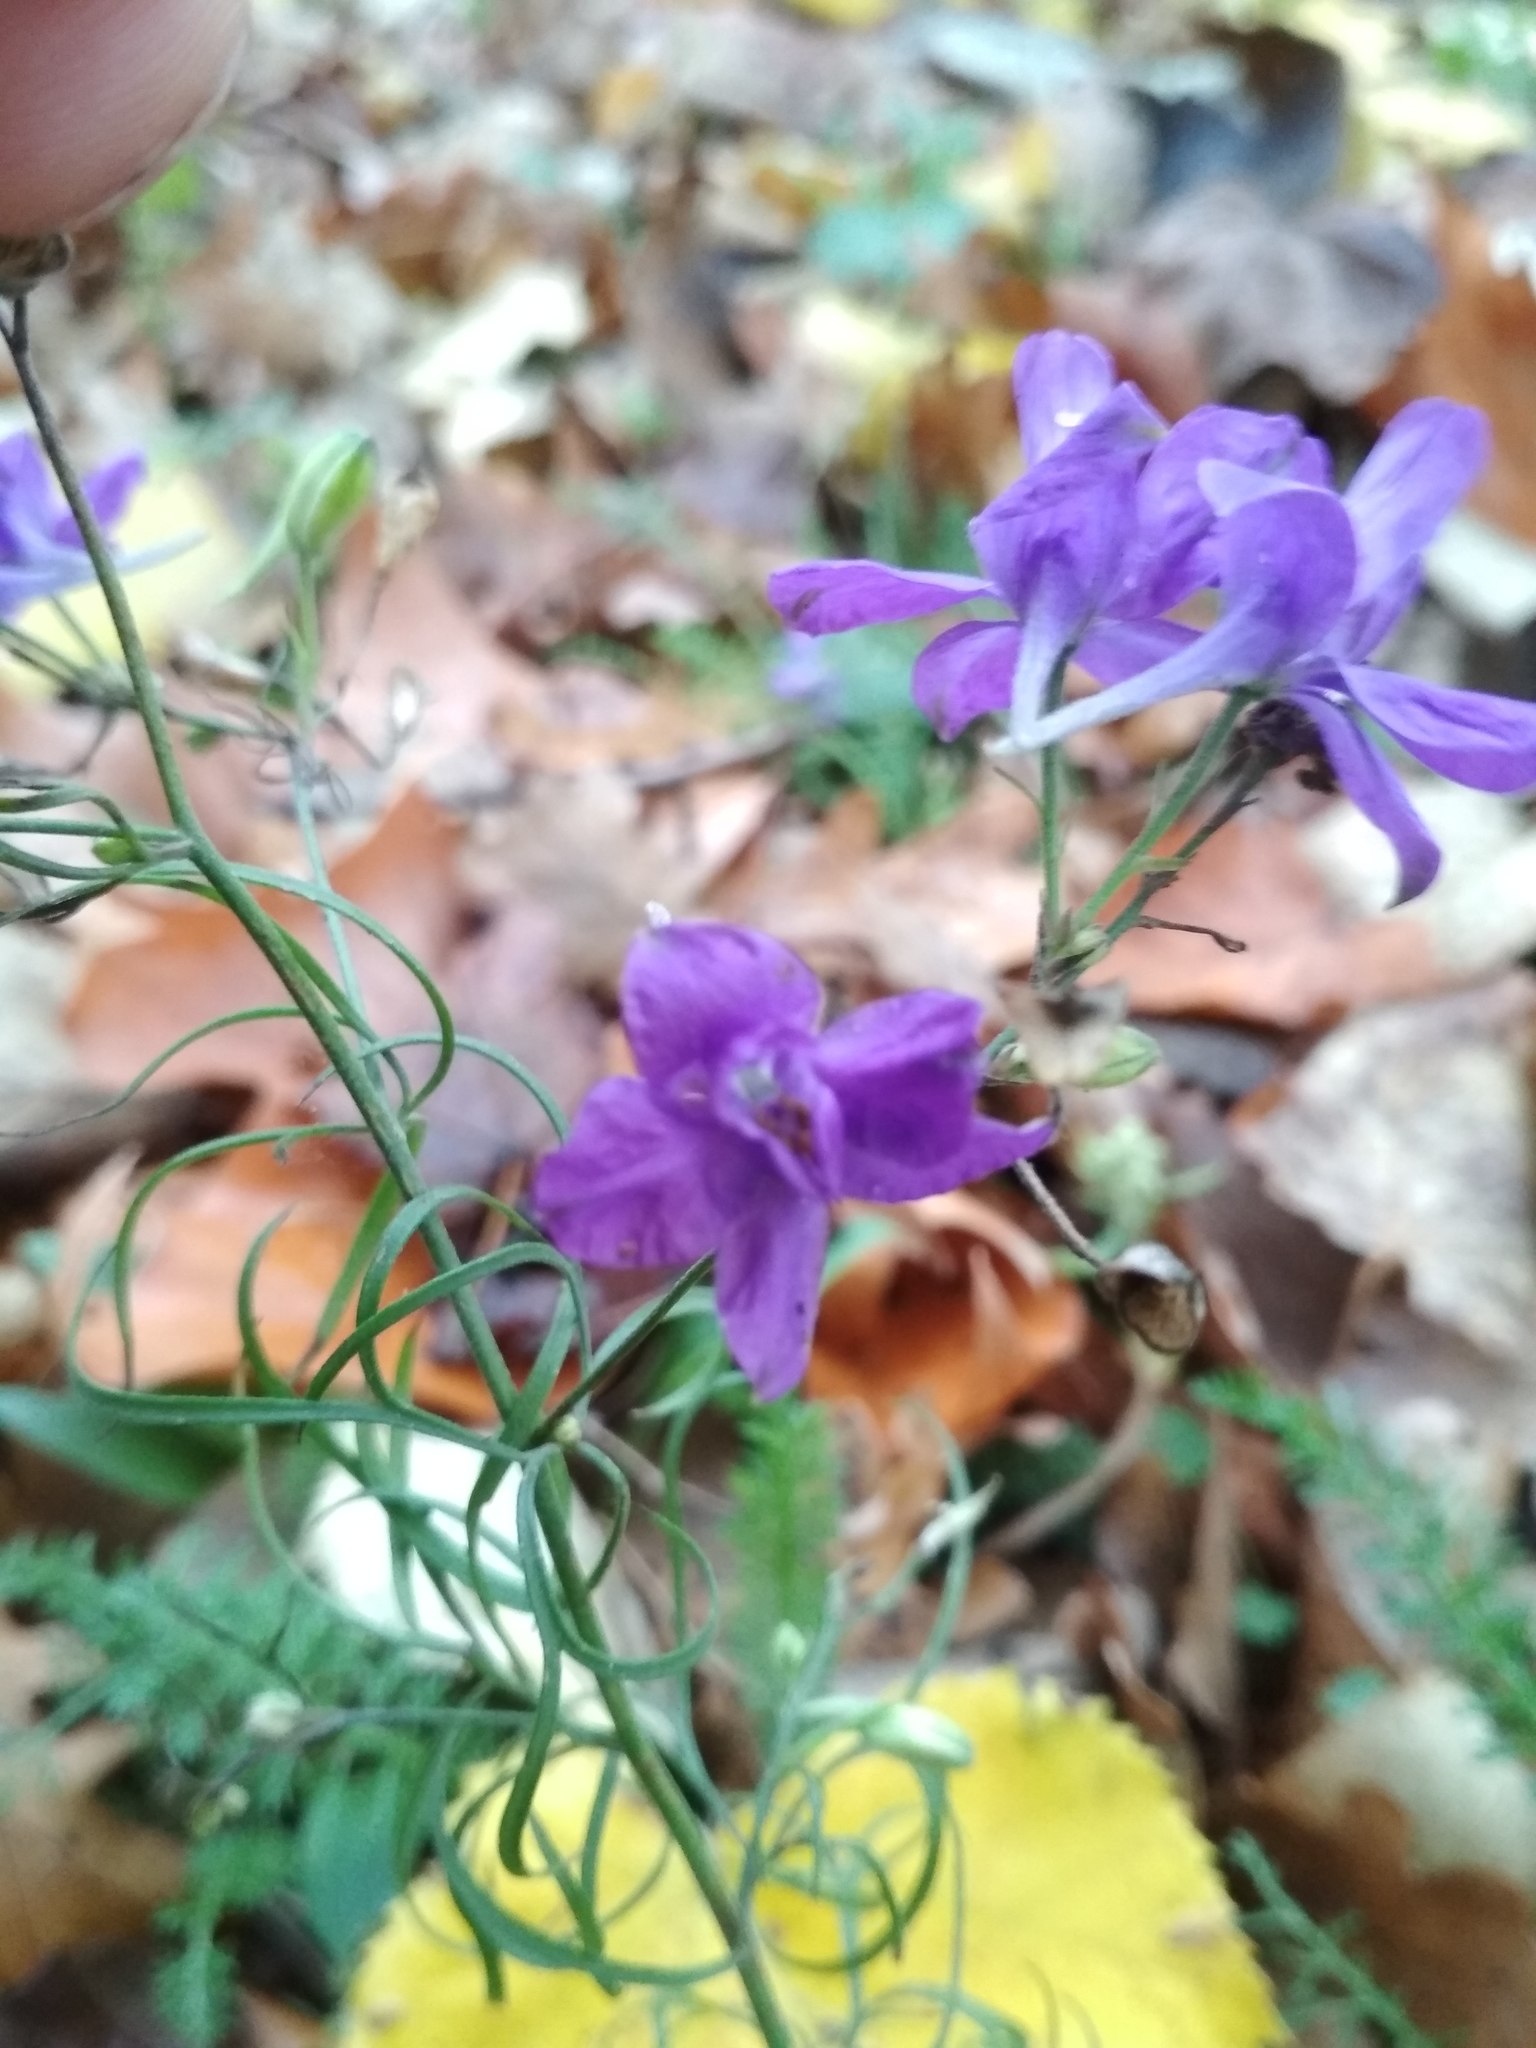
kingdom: Plantae
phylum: Tracheophyta
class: Magnoliopsida
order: Ranunculales
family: Ranunculaceae
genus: Delphinium
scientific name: Delphinium consolida
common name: Branching larkspur
